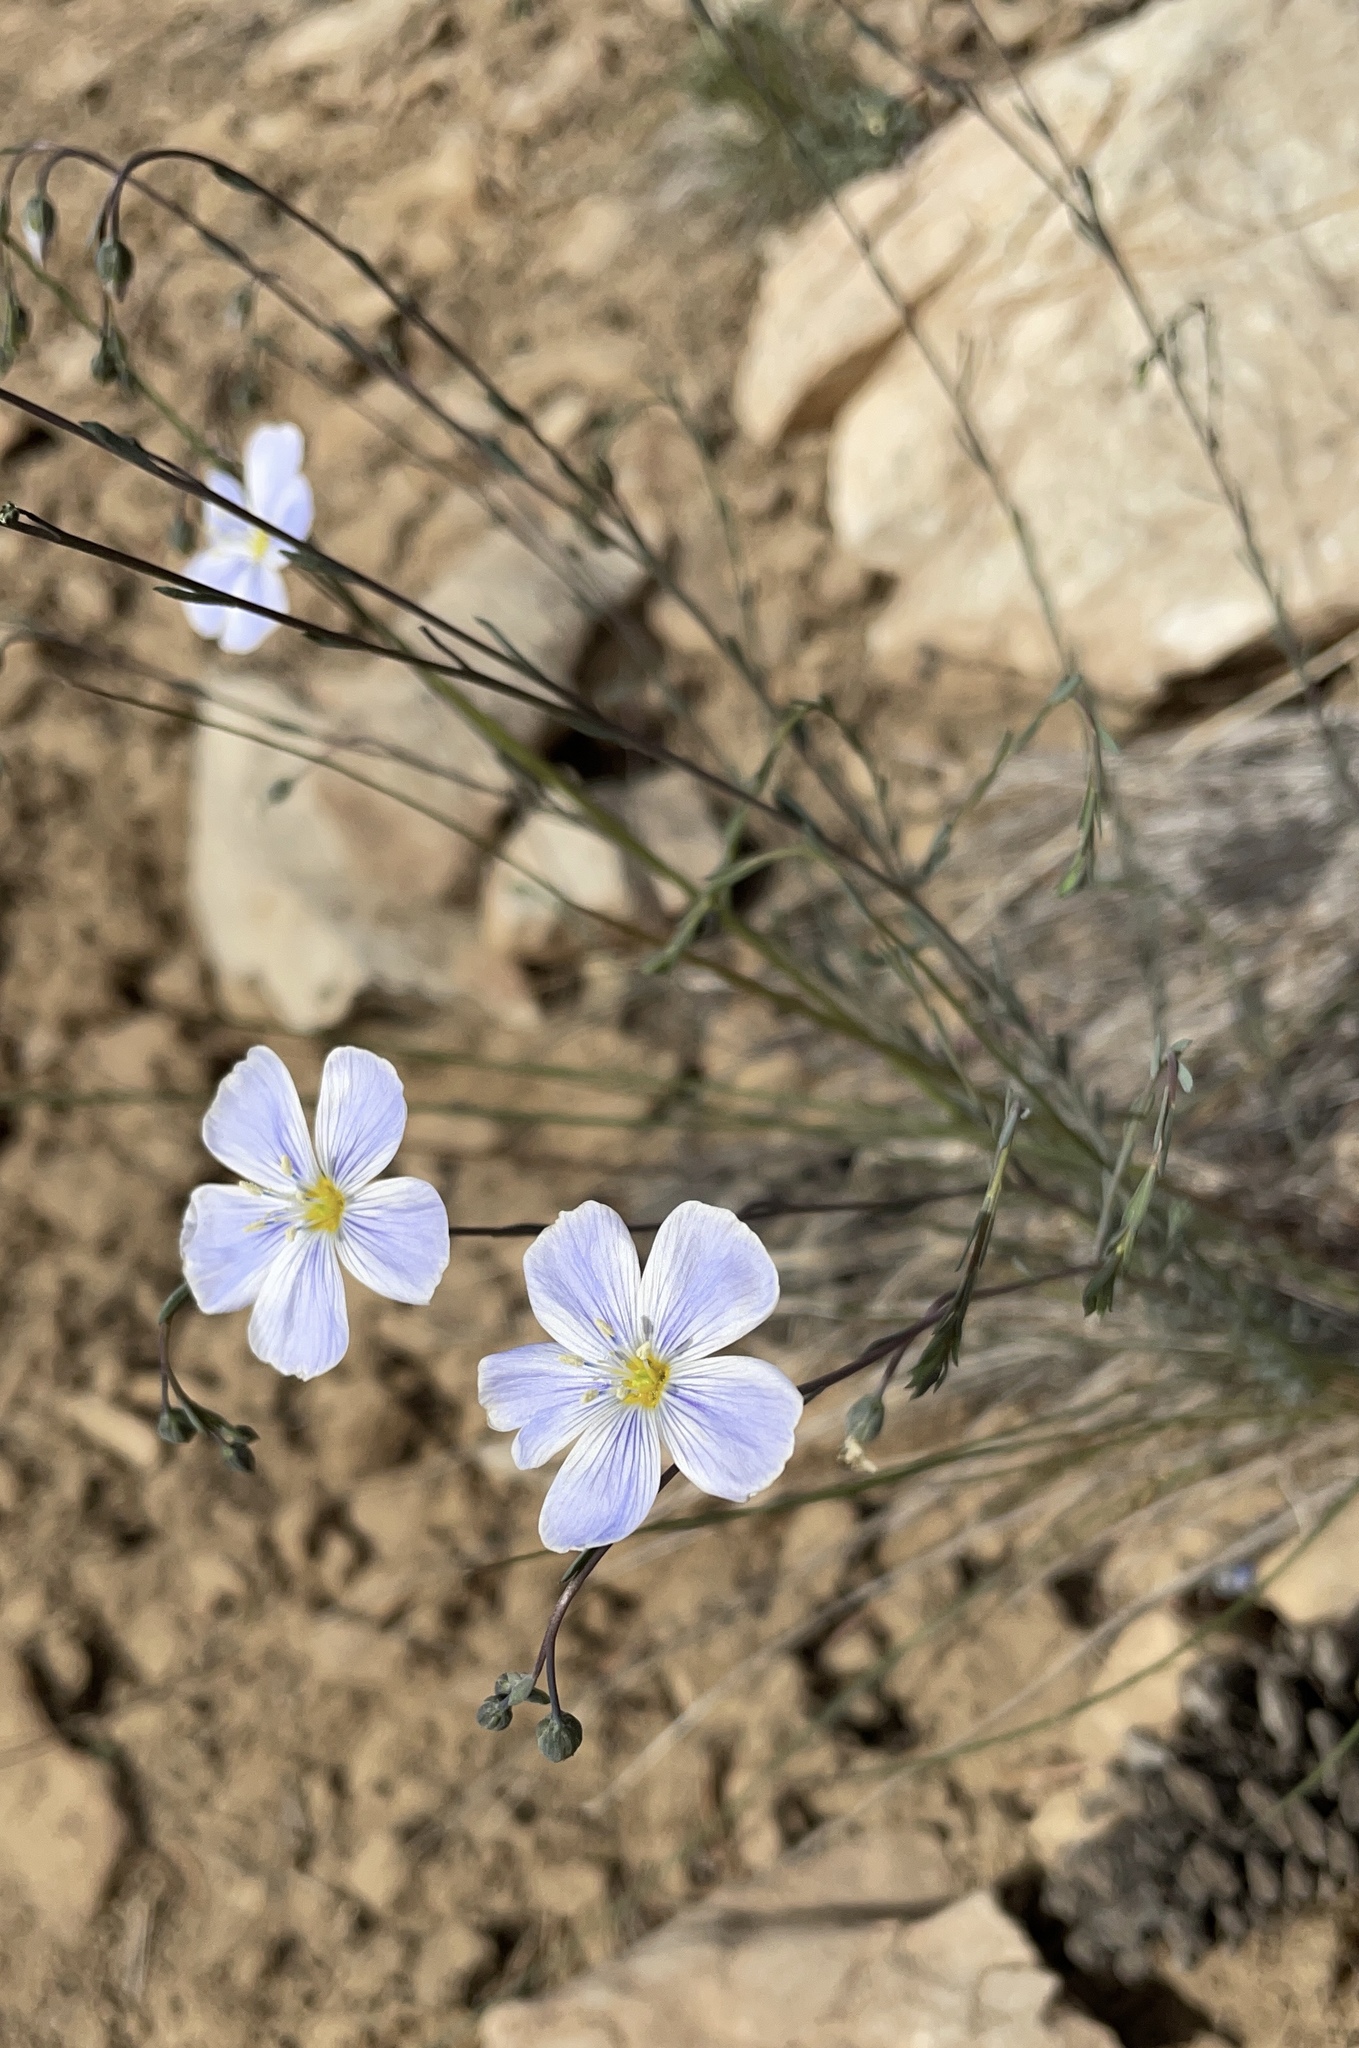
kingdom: Plantae
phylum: Tracheophyta
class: Magnoliopsida
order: Malpighiales
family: Linaceae
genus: Linum
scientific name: Linum lewisii
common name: Prairie flax
